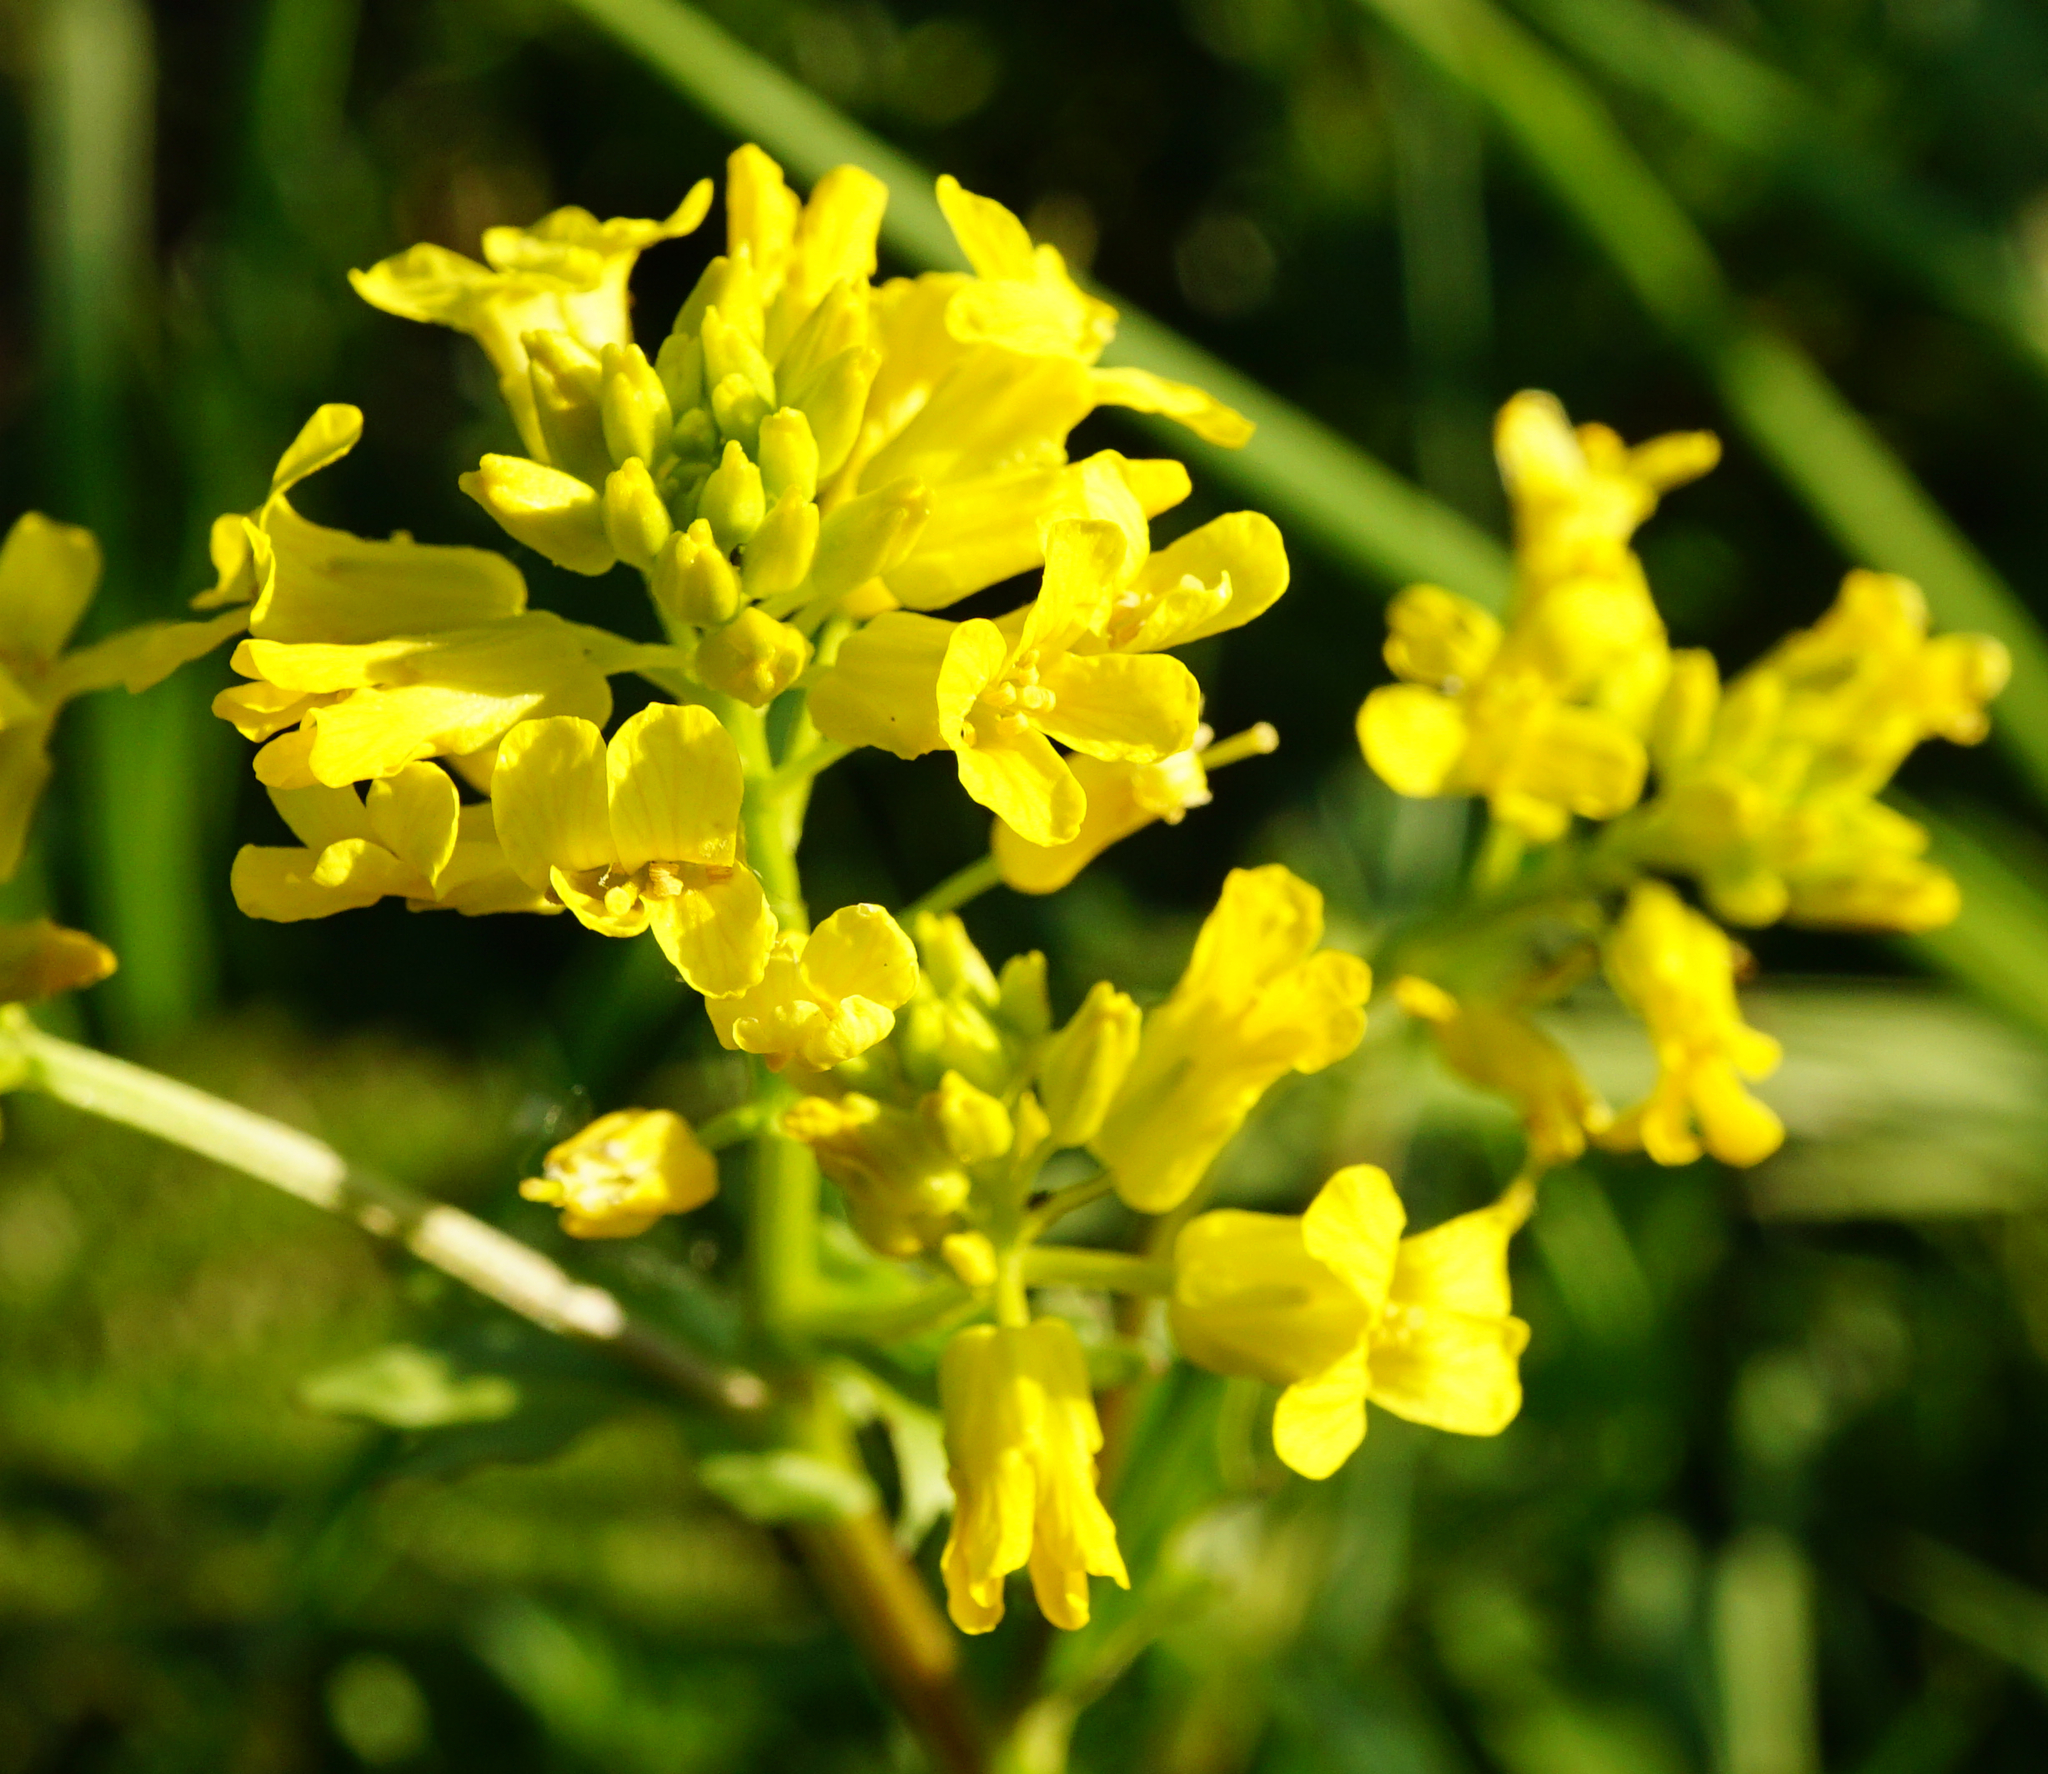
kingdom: Plantae
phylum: Tracheophyta
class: Magnoliopsida
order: Brassicales
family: Brassicaceae
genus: Barbarea
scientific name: Barbarea vulgaris
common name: Cressy-greens
